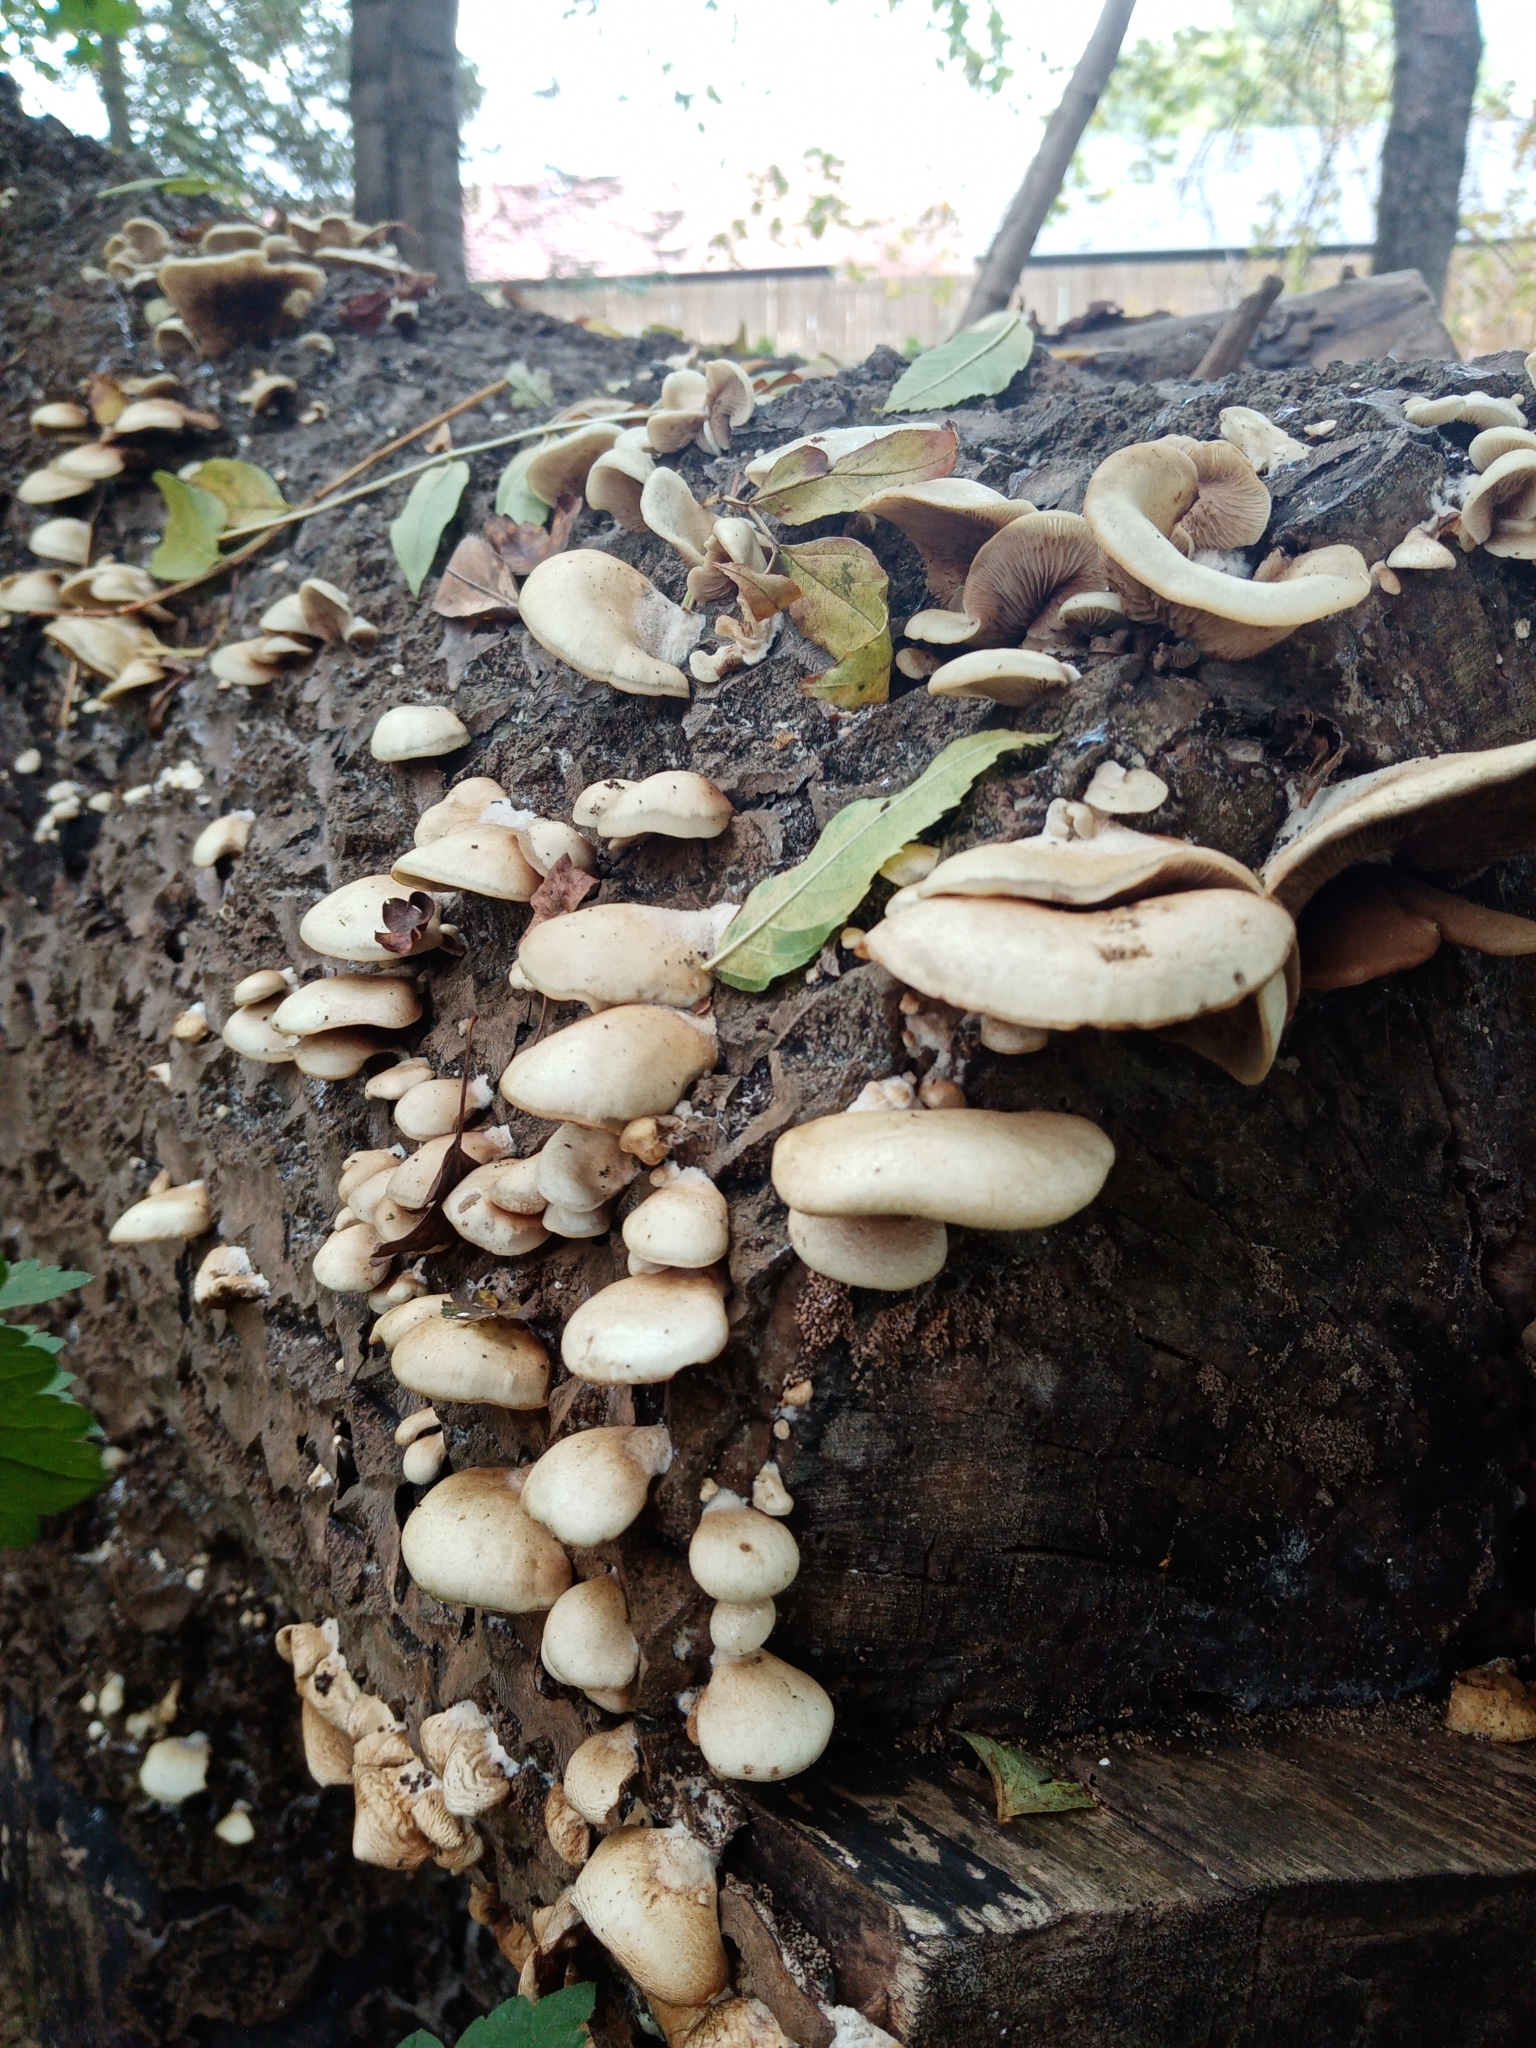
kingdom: Fungi
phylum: Basidiomycota
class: Agaricomycetes
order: Agaricales
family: Crepidotaceae
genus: Crepidotus
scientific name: Crepidotus mollis
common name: Peeling oysterling
